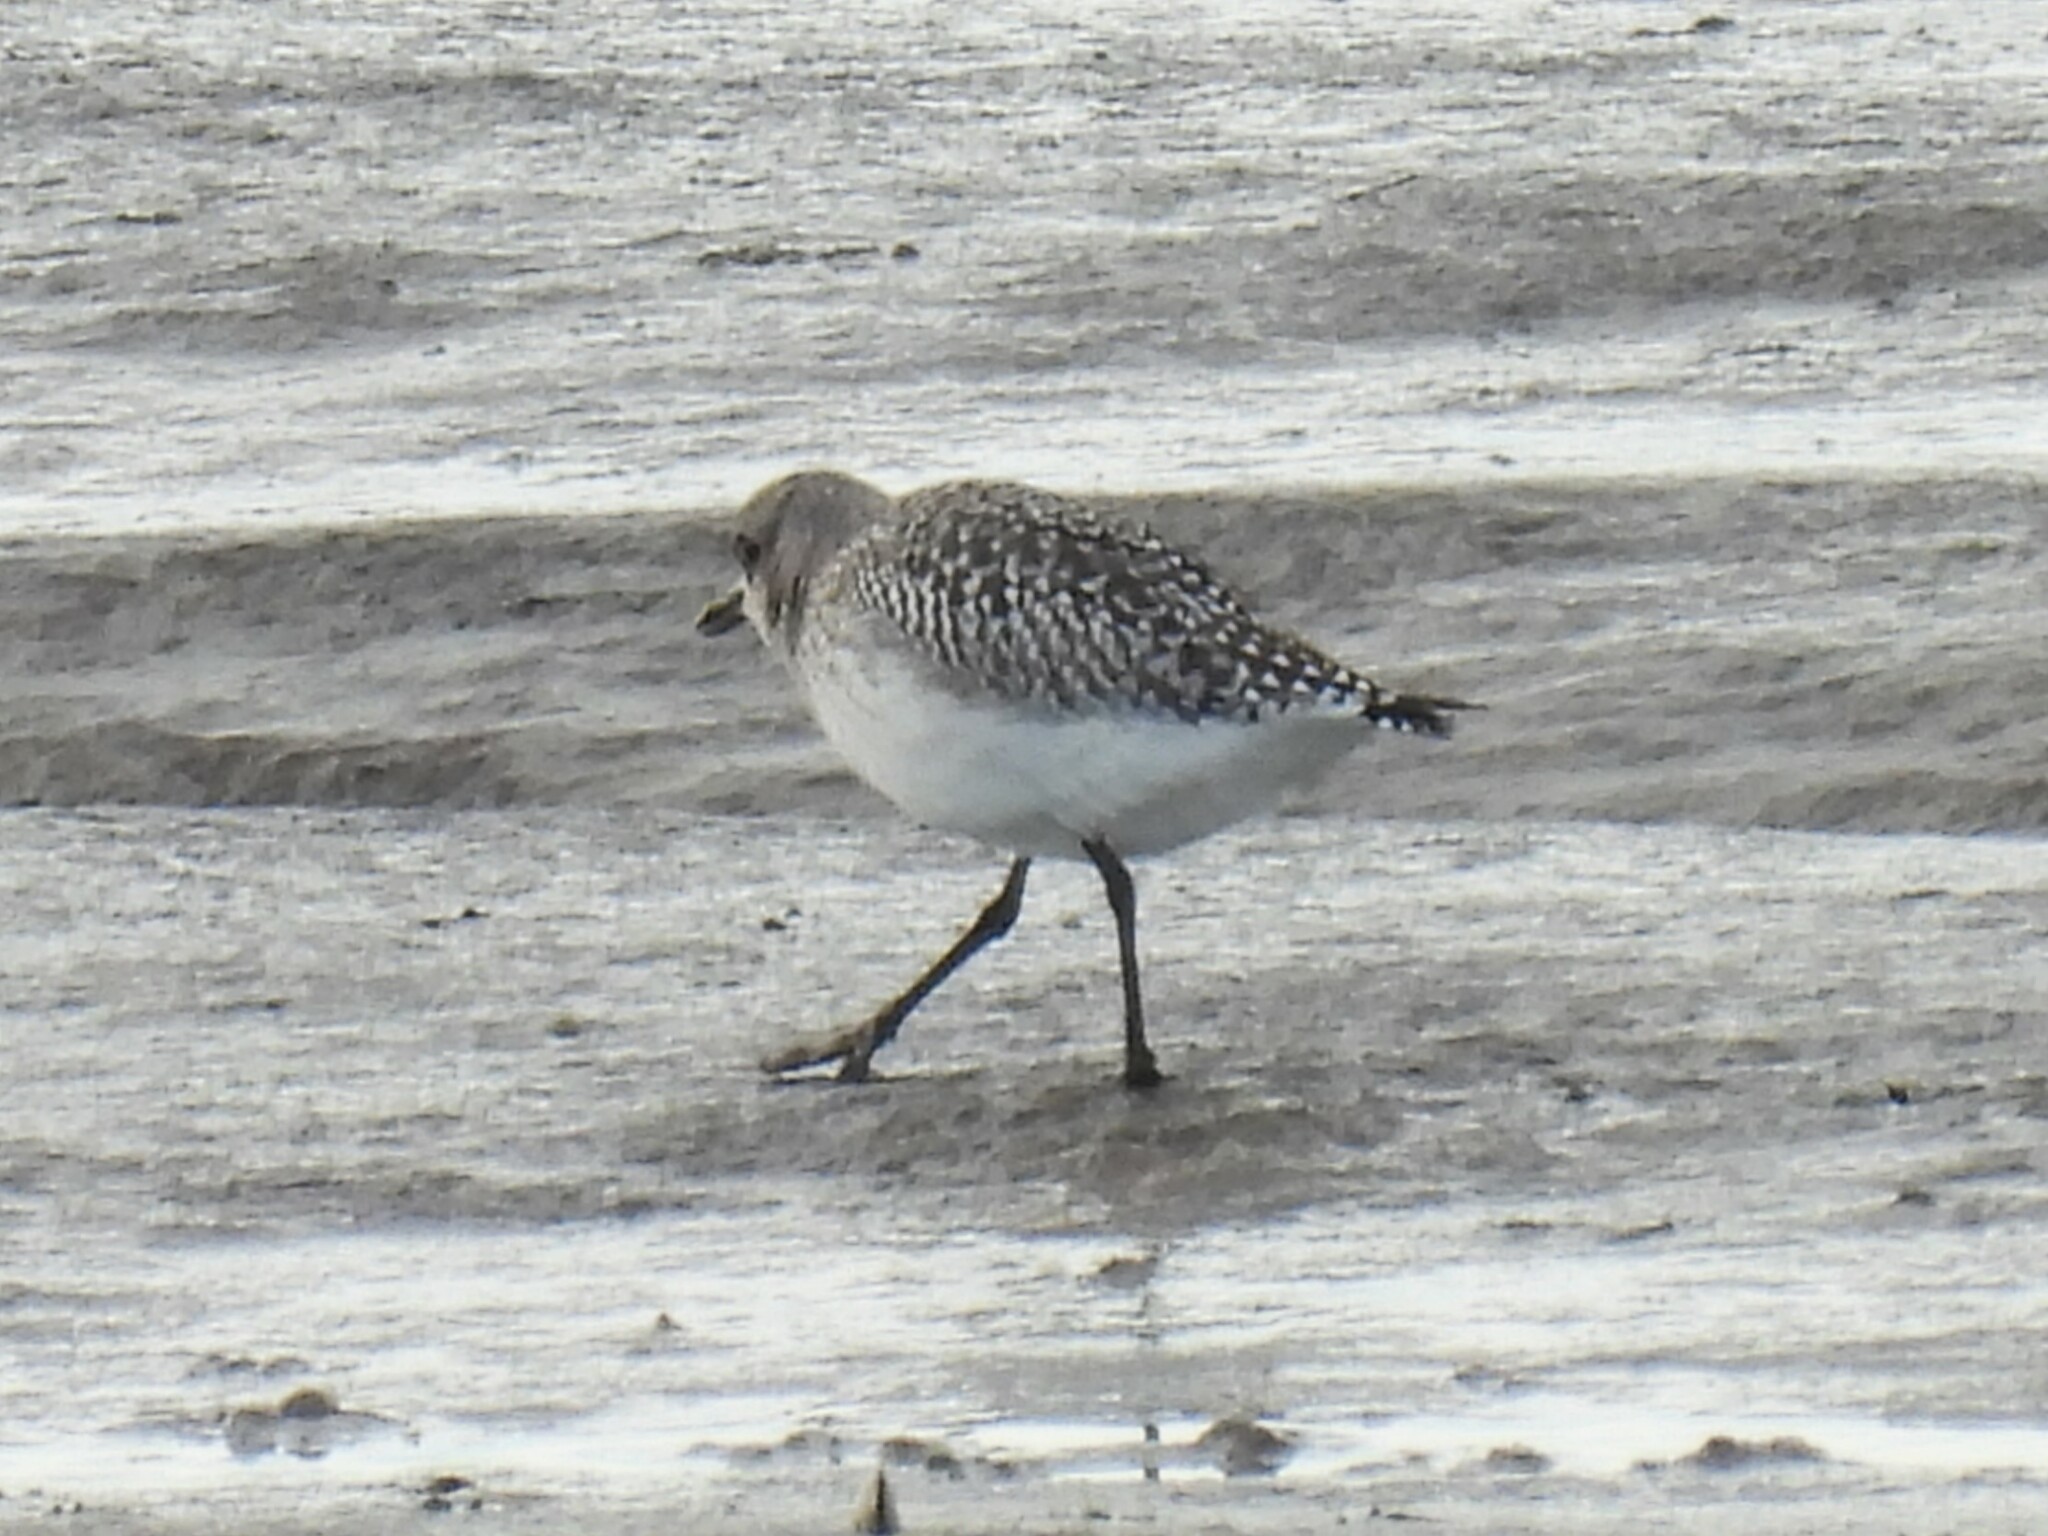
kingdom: Animalia
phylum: Chordata
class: Aves
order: Charadriiformes
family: Charadriidae
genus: Pluvialis
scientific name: Pluvialis squatarola
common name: Grey plover
